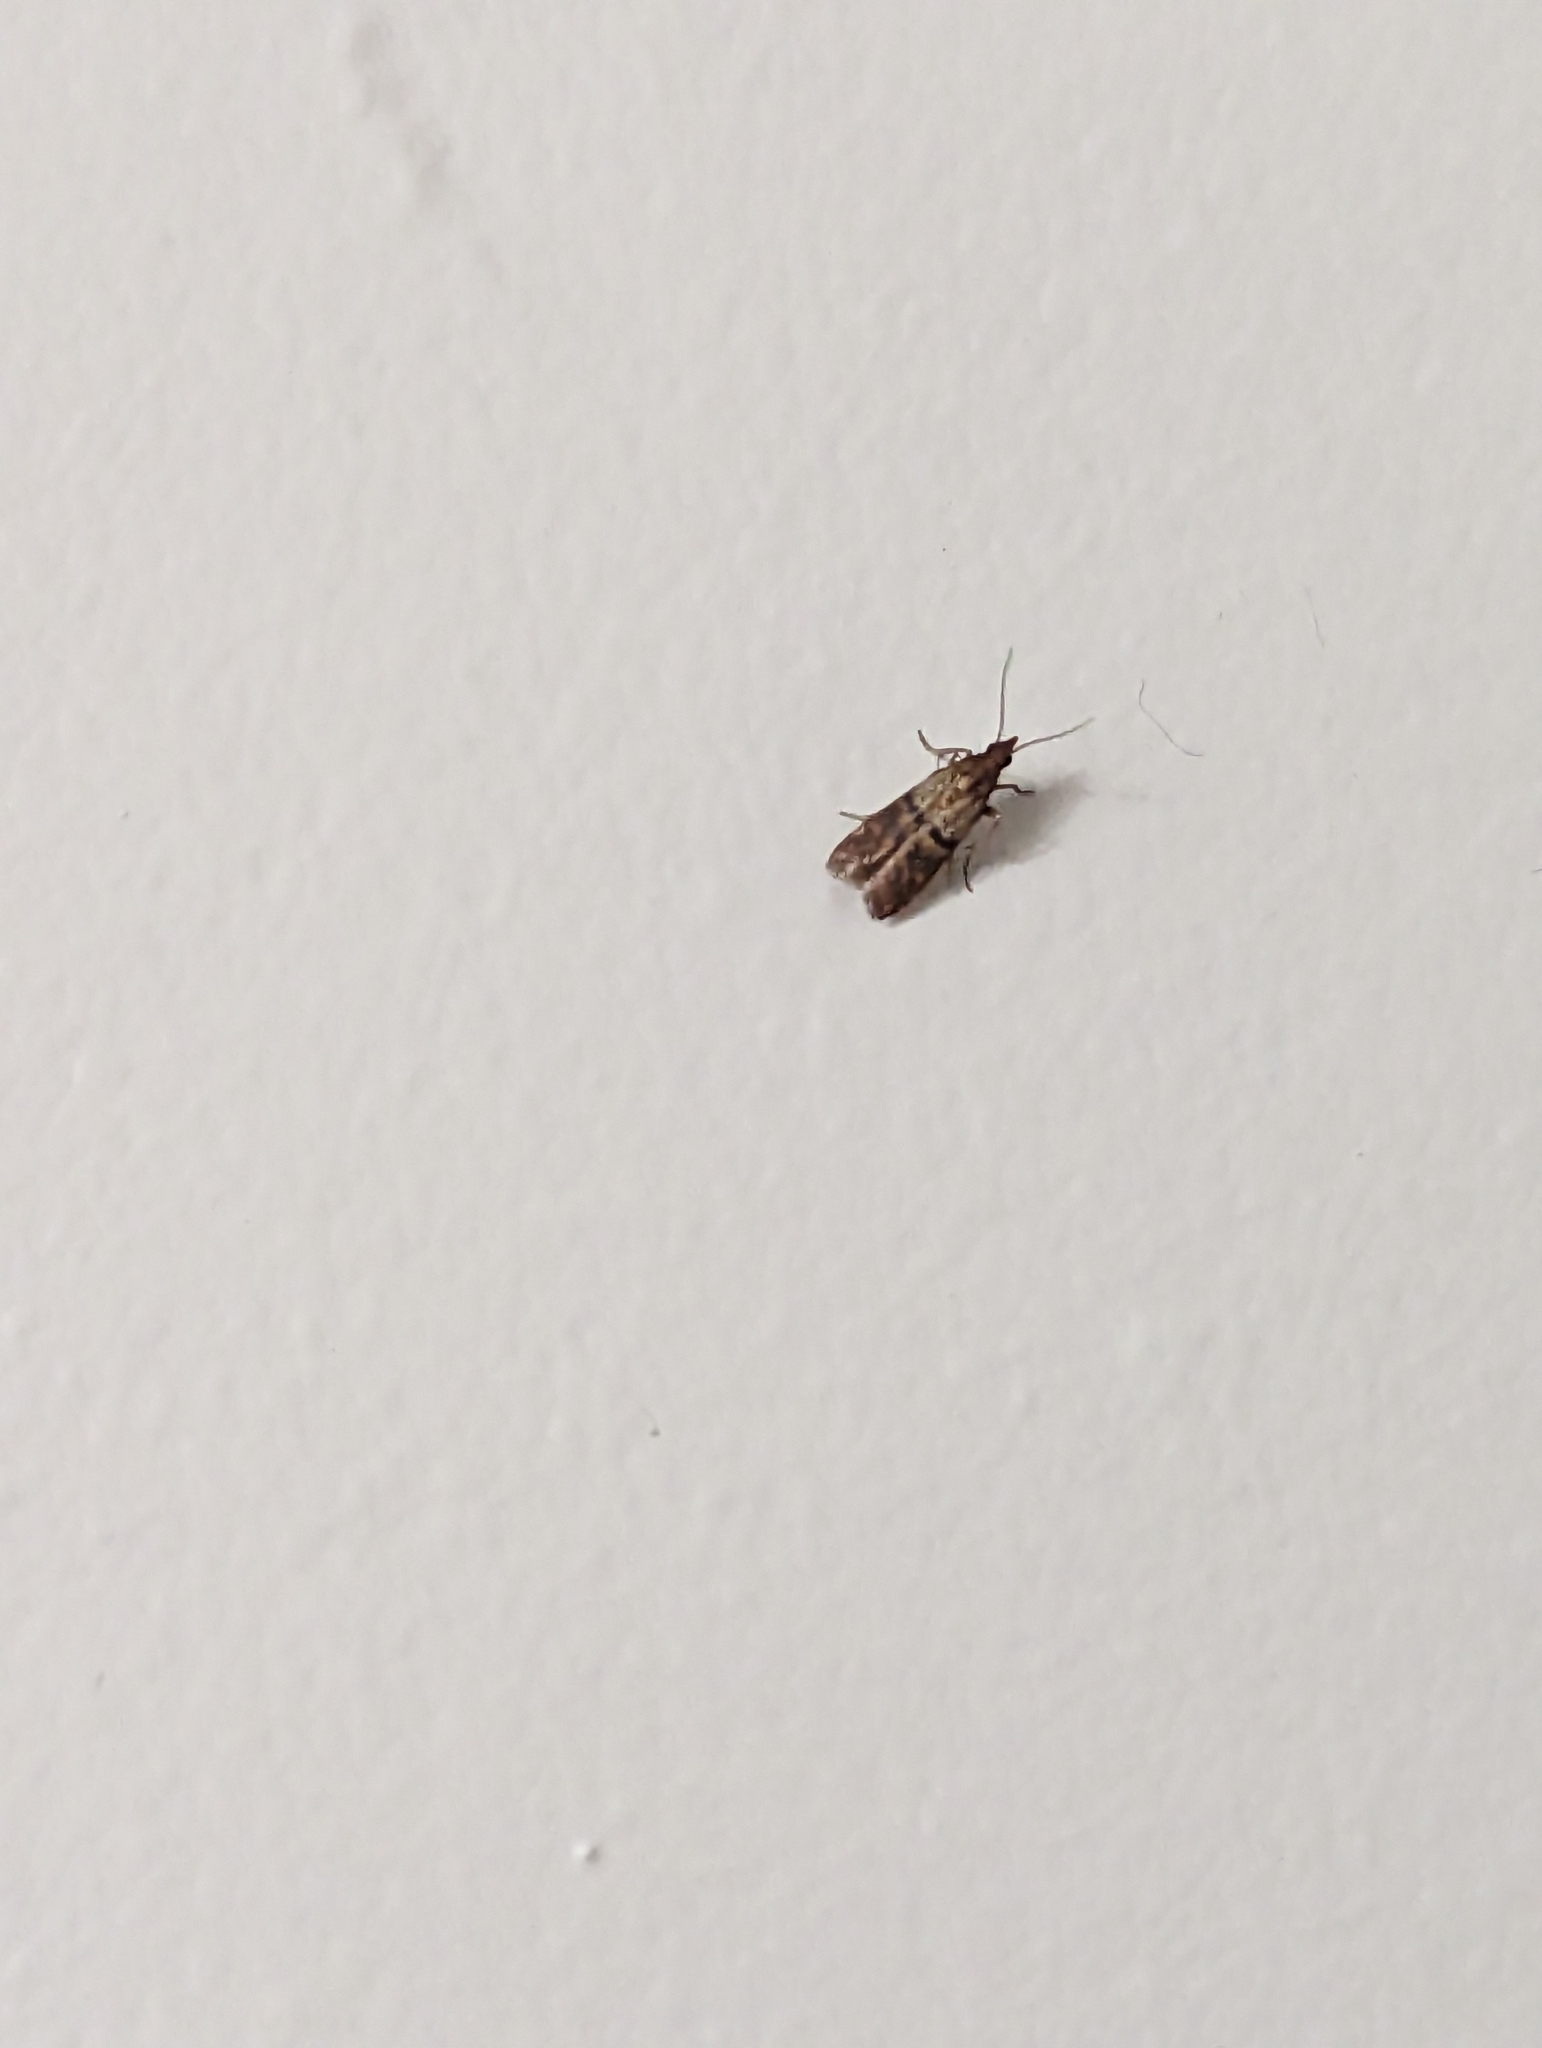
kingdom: Animalia
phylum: Arthropoda
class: Insecta
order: Lepidoptera
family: Pyralidae
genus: Plodia
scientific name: Plodia interpunctella
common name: Indian meal moth
